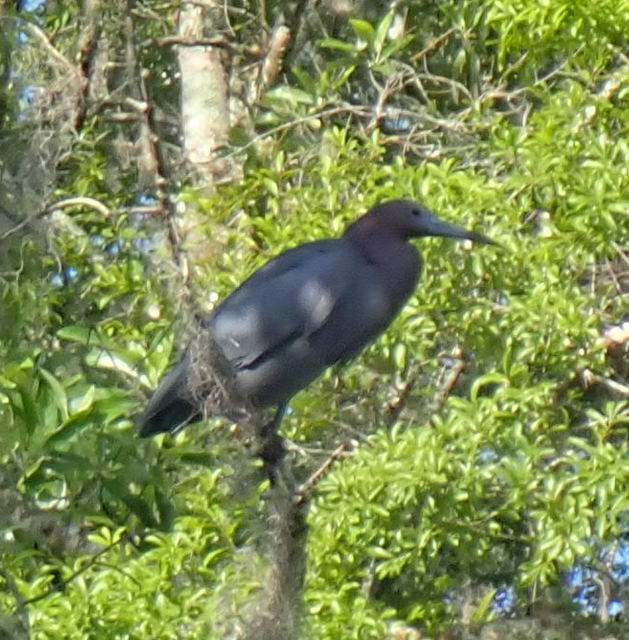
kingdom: Animalia
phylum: Chordata
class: Aves
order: Pelecaniformes
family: Ardeidae
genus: Egretta
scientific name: Egretta caerulea
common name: Little blue heron
